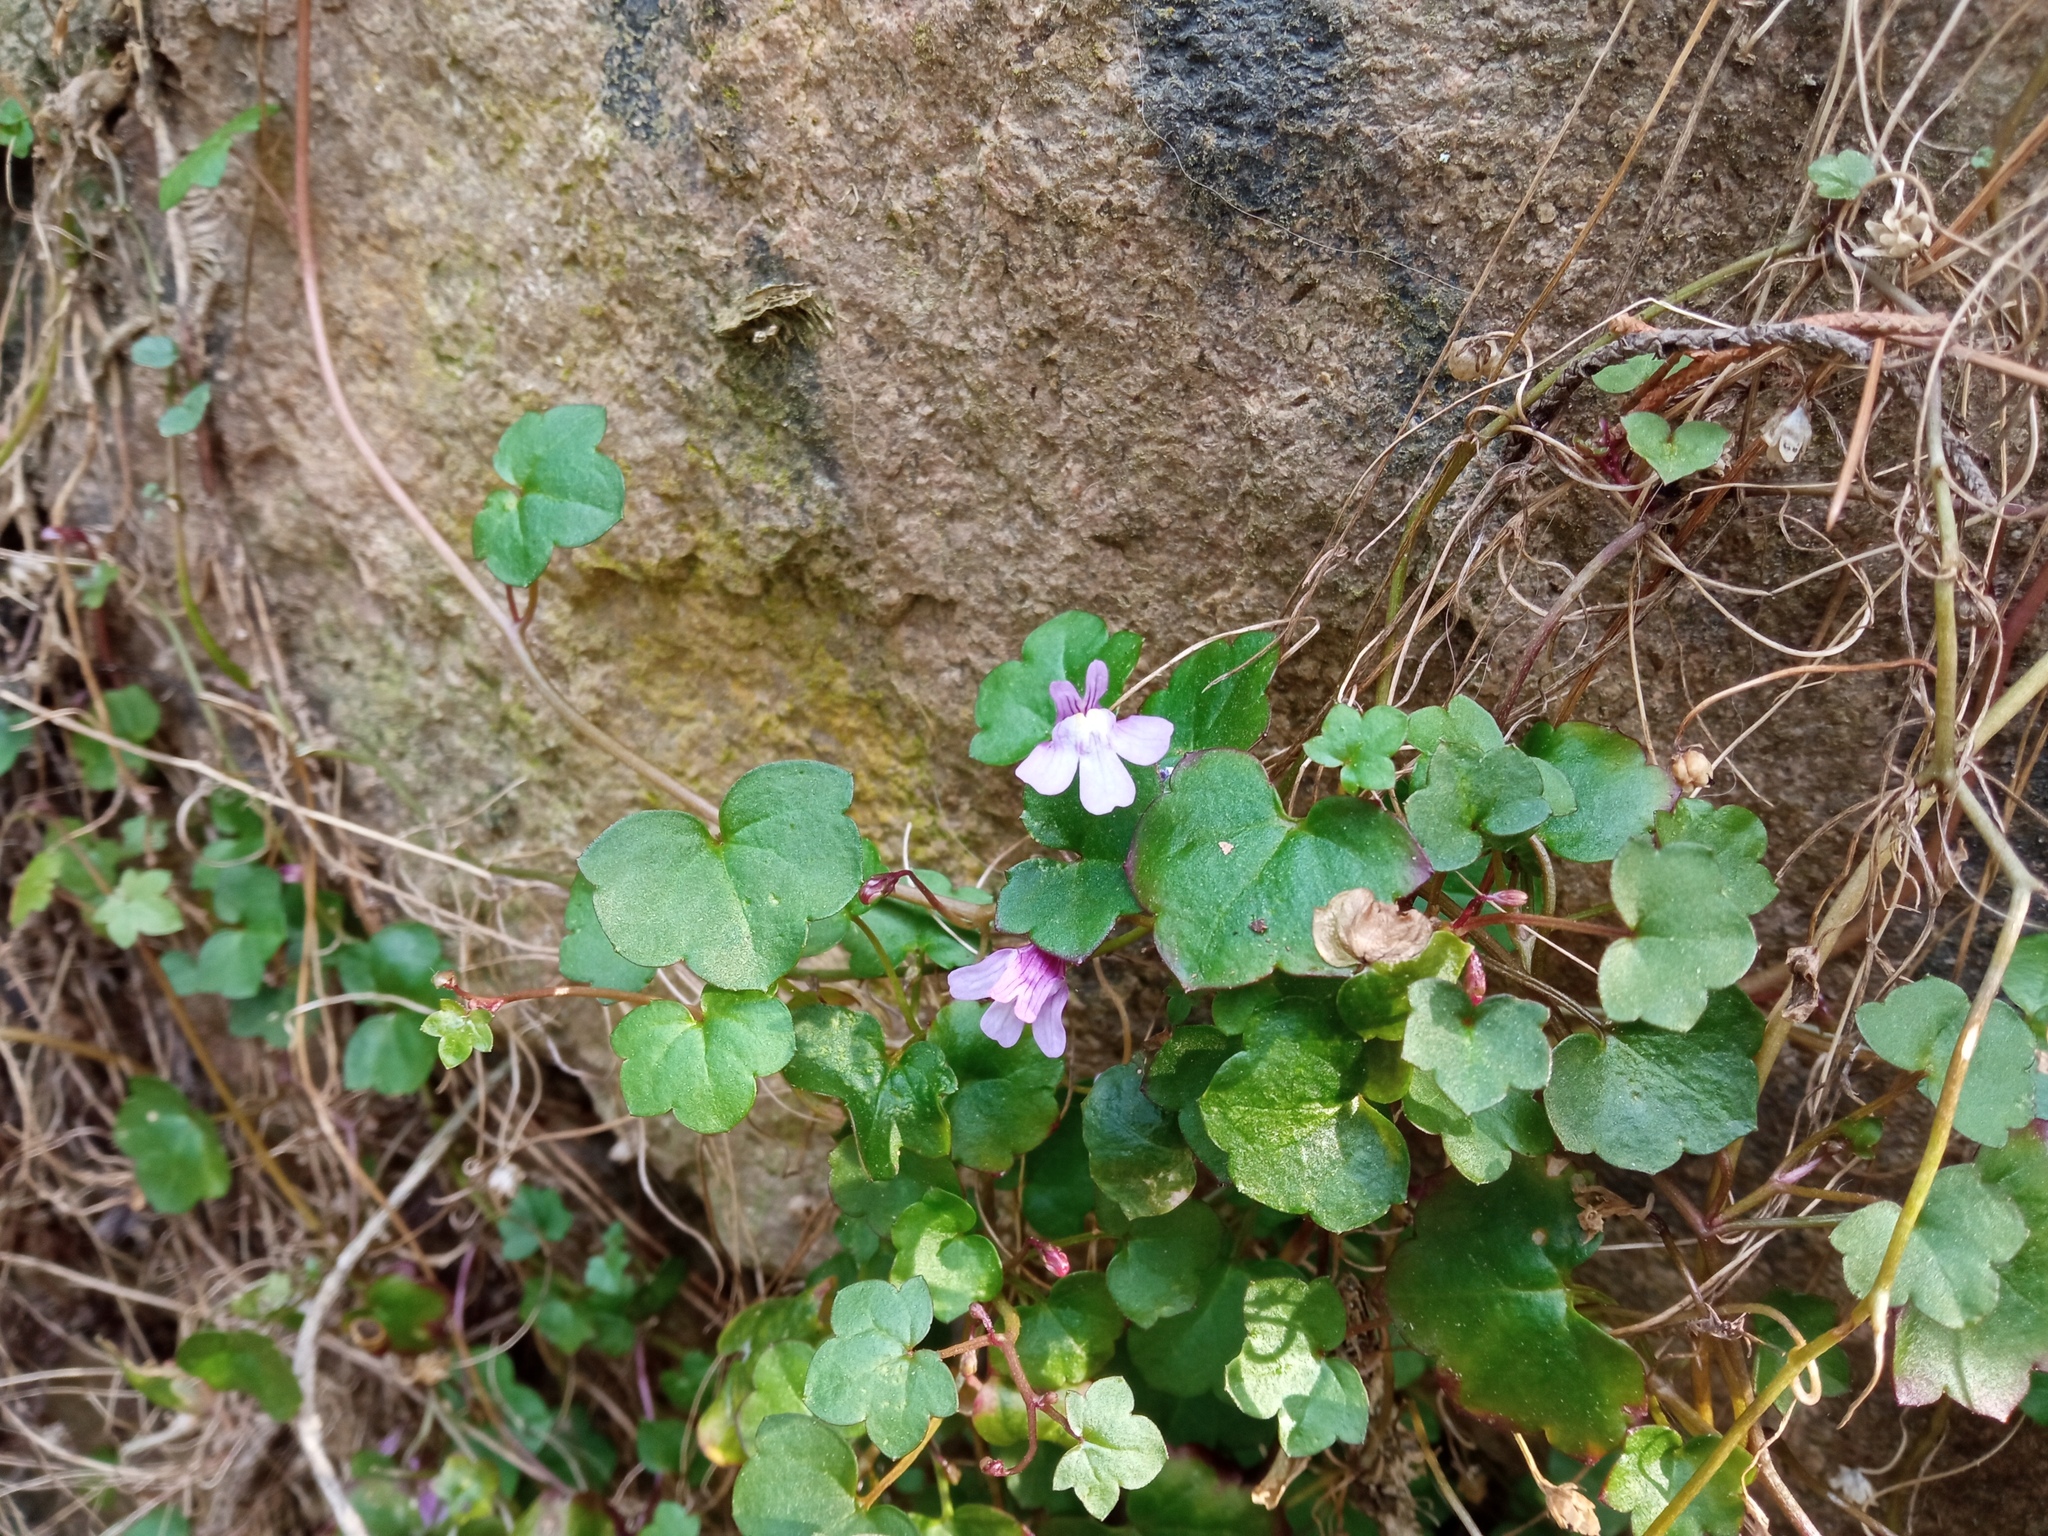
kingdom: Plantae
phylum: Tracheophyta
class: Magnoliopsida
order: Lamiales
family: Plantaginaceae
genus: Cymbalaria
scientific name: Cymbalaria muralis
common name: Ivy-leaved toadflax
